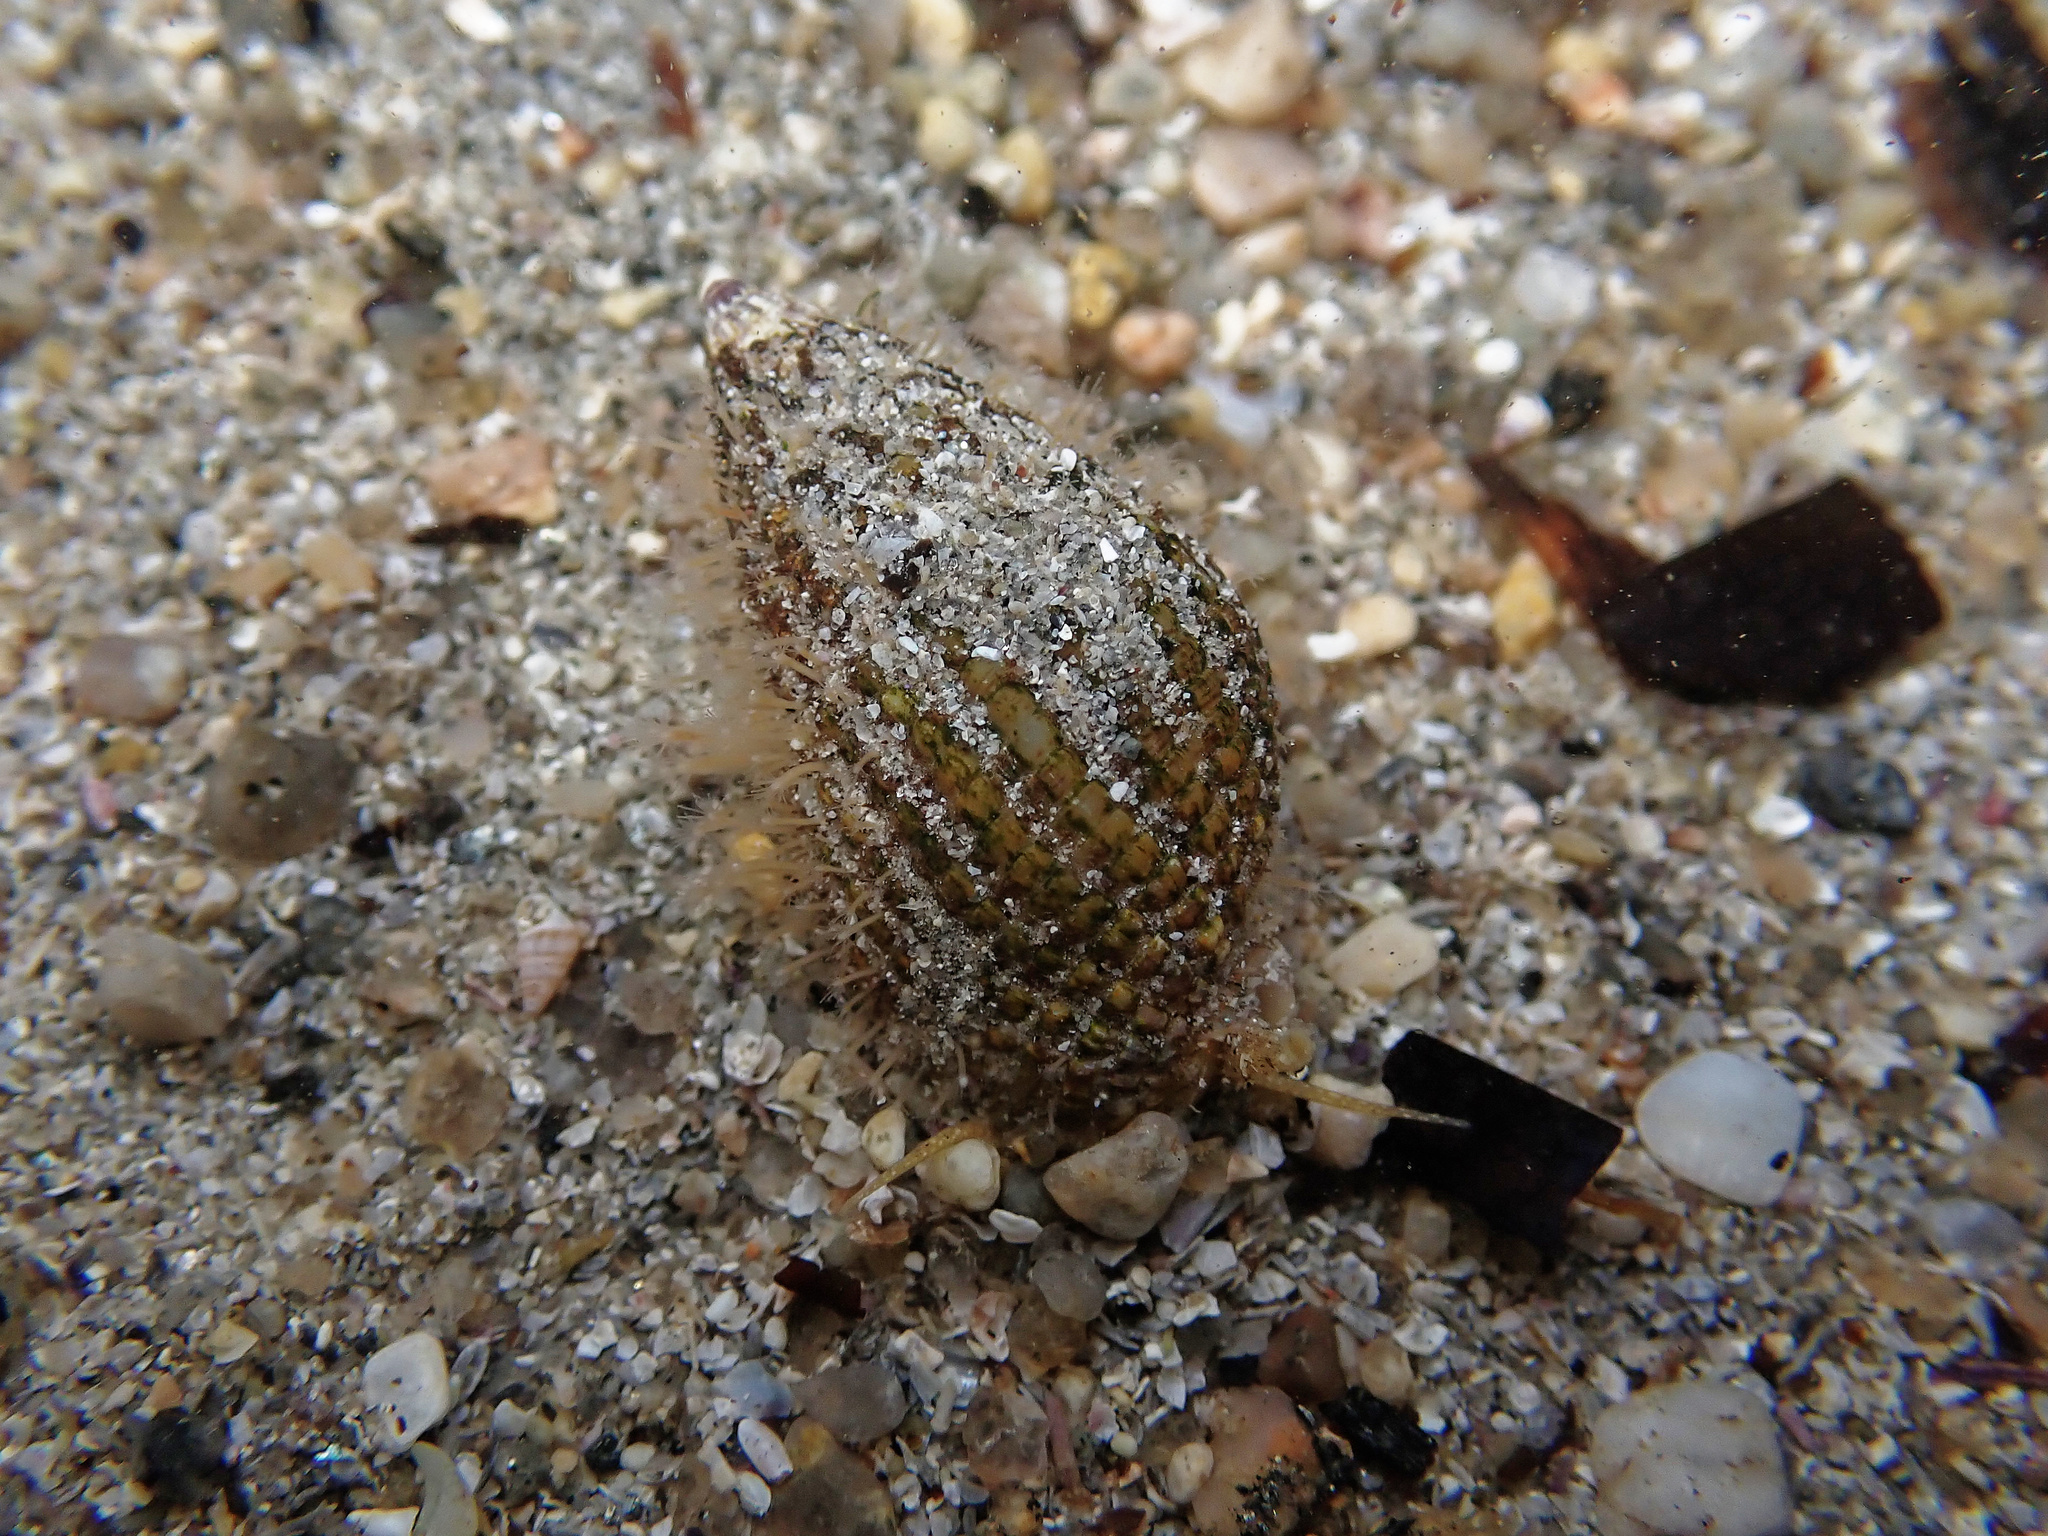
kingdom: Animalia
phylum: Mollusca
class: Gastropoda
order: Neogastropoda
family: Nassariidae
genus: Tritia
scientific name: Tritia reticulata
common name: Netted dog whelk
